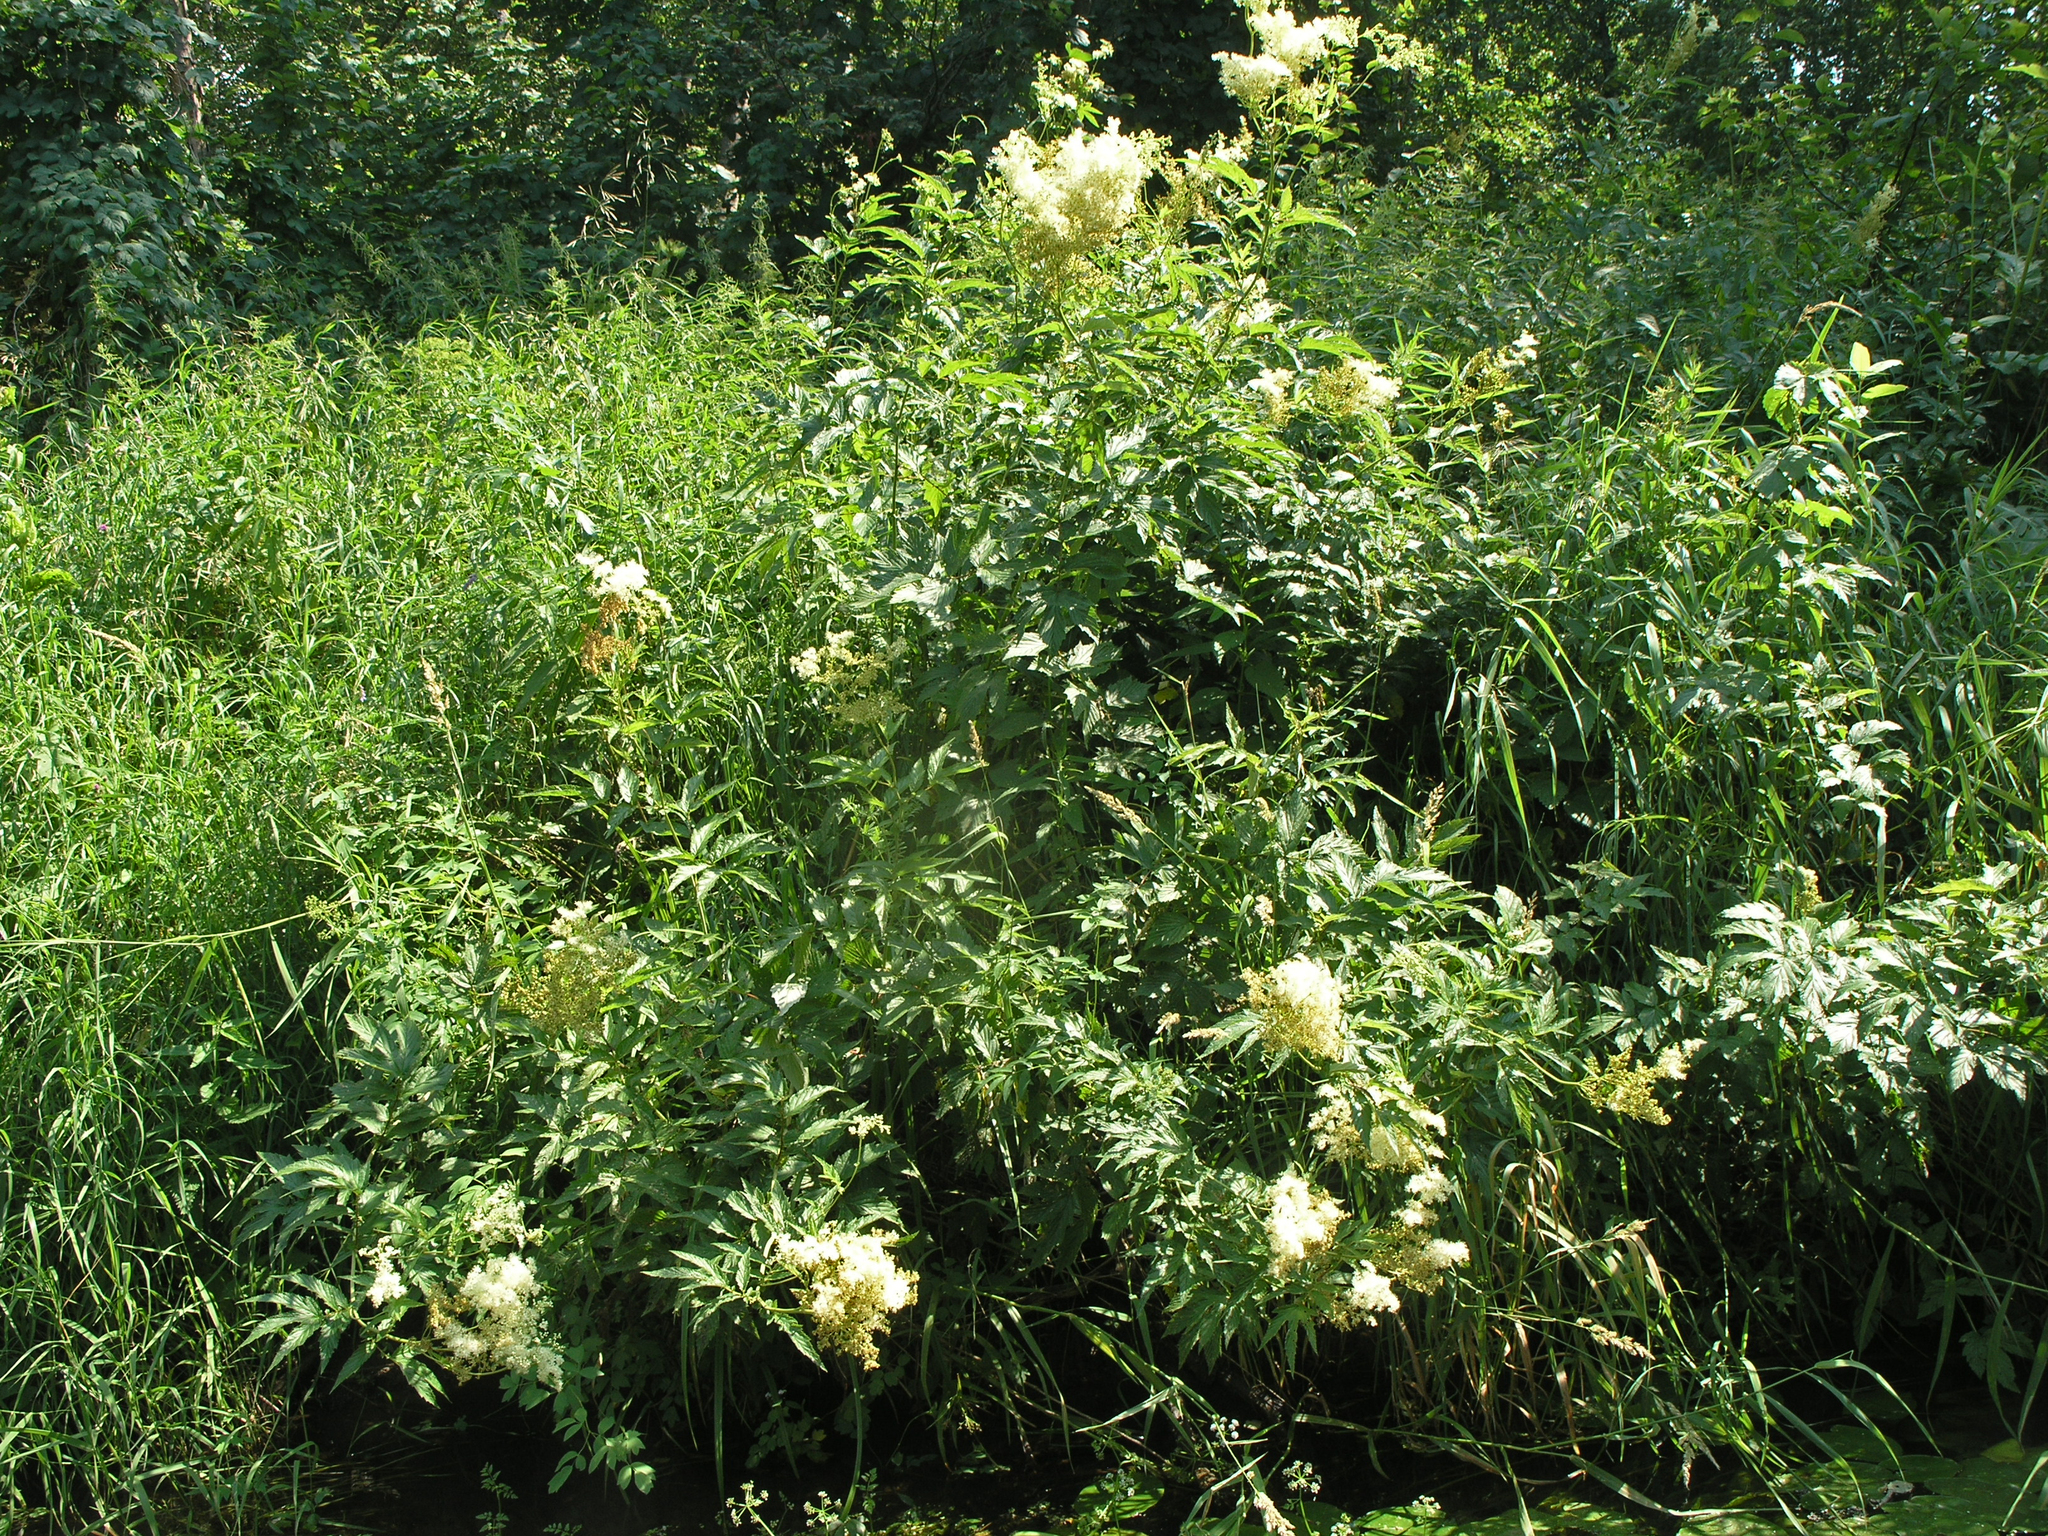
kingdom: Plantae
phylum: Tracheophyta
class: Magnoliopsida
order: Rosales
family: Rosaceae
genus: Filipendula
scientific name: Filipendula ulmaria
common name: Meadowsweet
